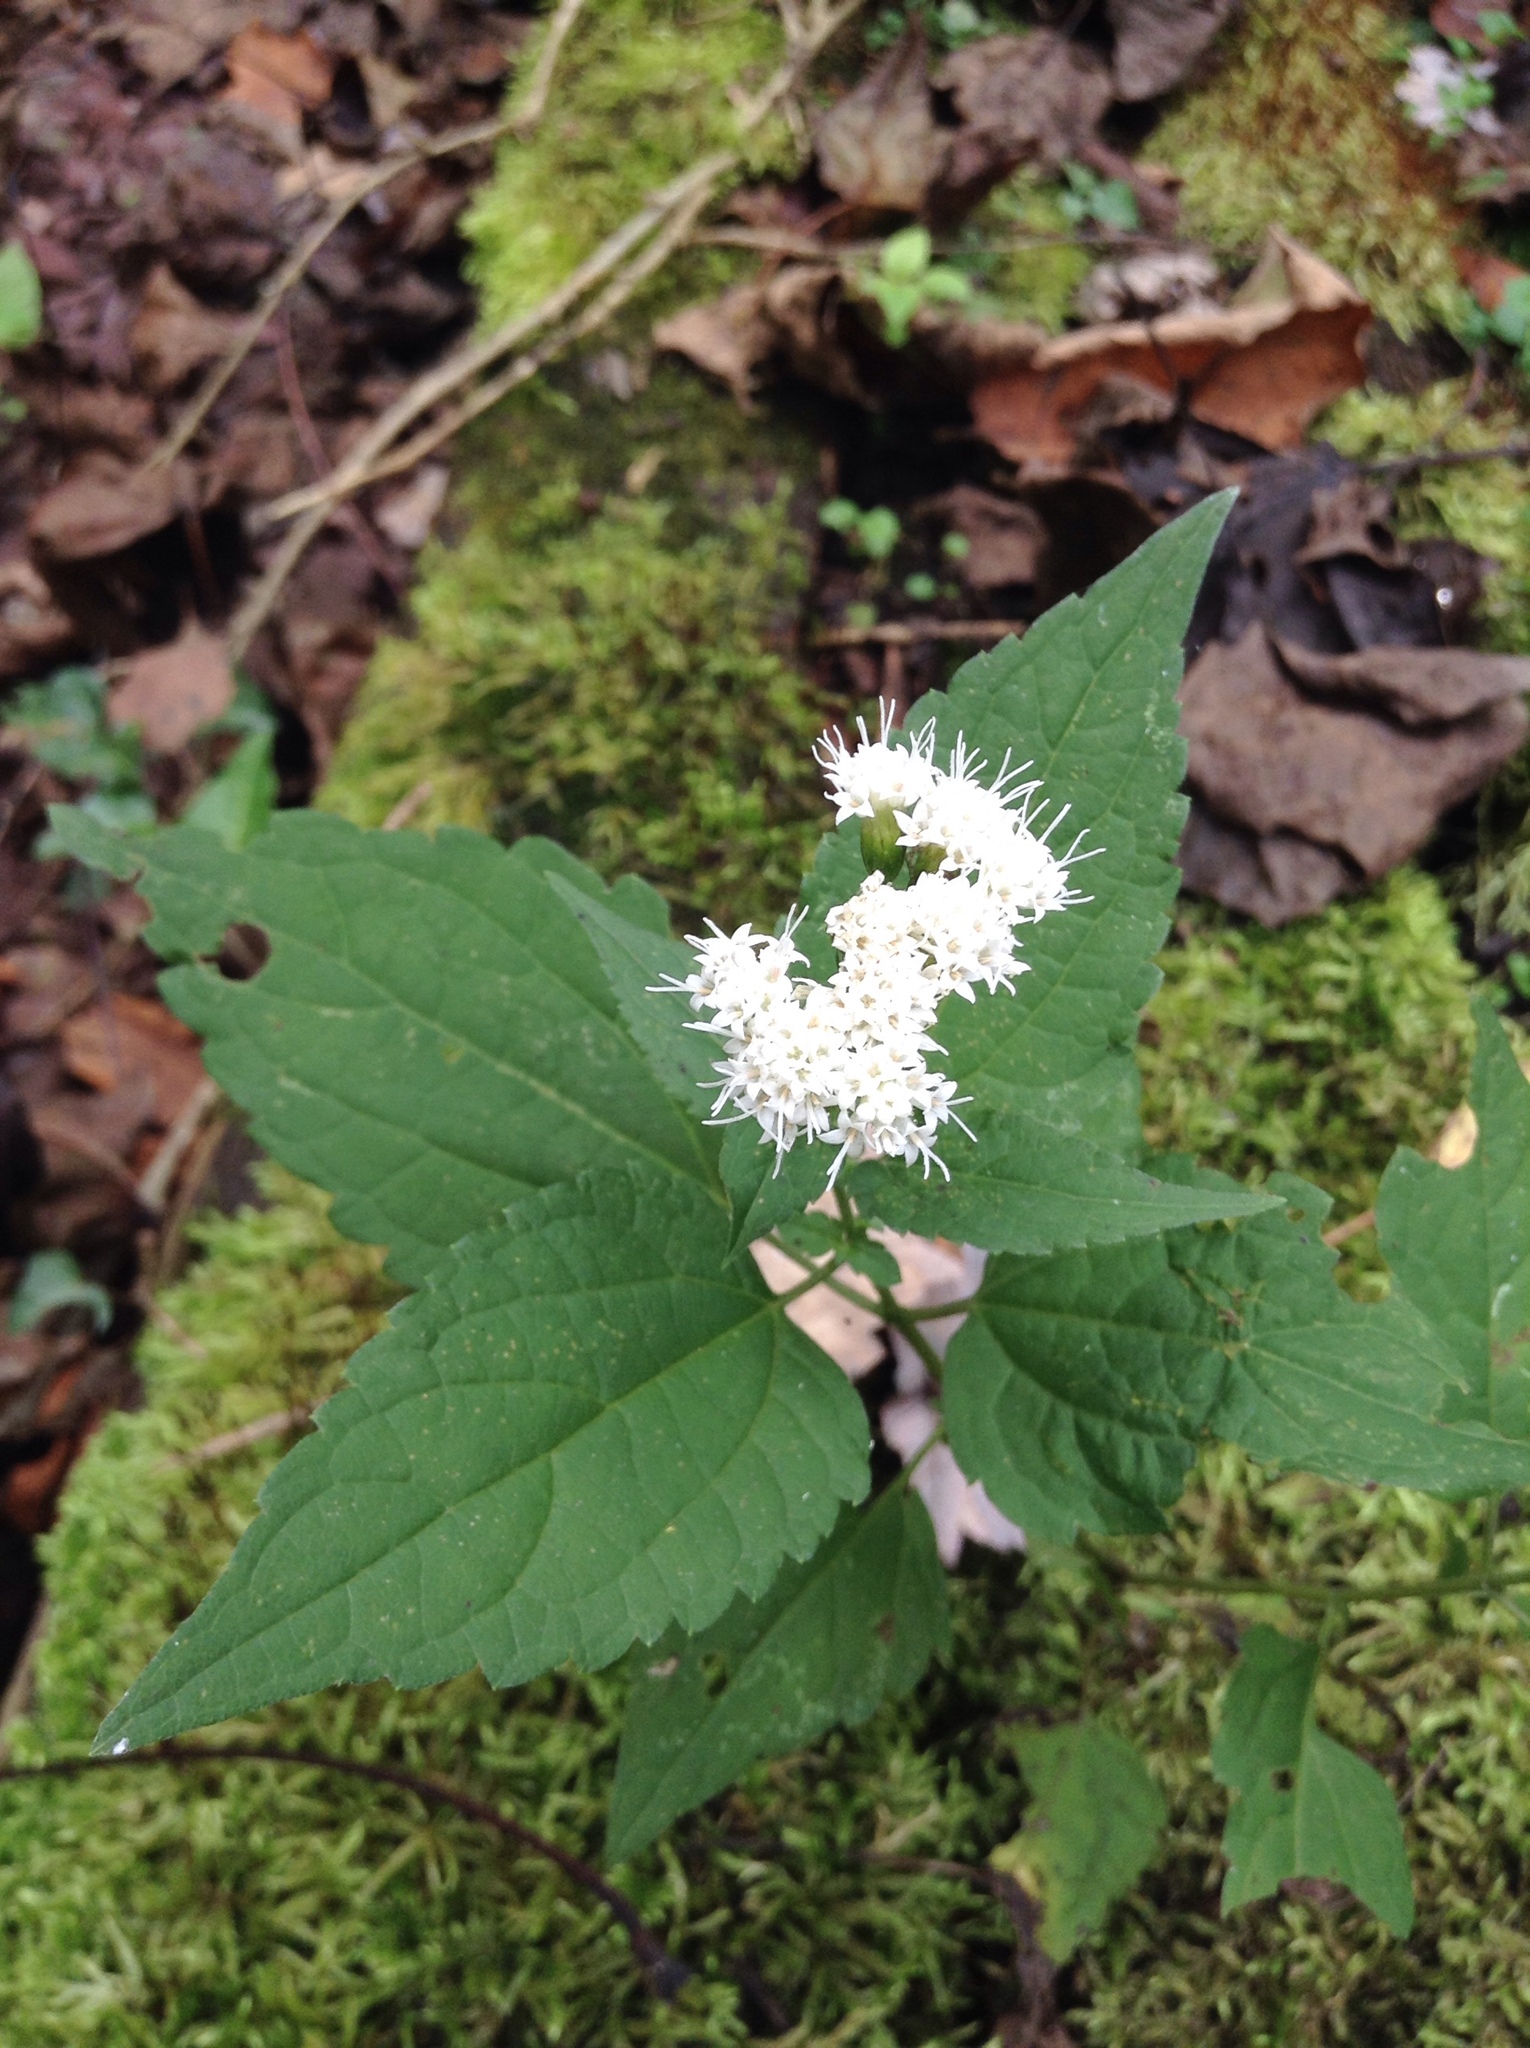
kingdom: Plantae
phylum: Tracheophyta
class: Magnoliopsida
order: Asterales
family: Asteraceae
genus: Ageratina
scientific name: Ageratina altissima
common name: White snakeroot
